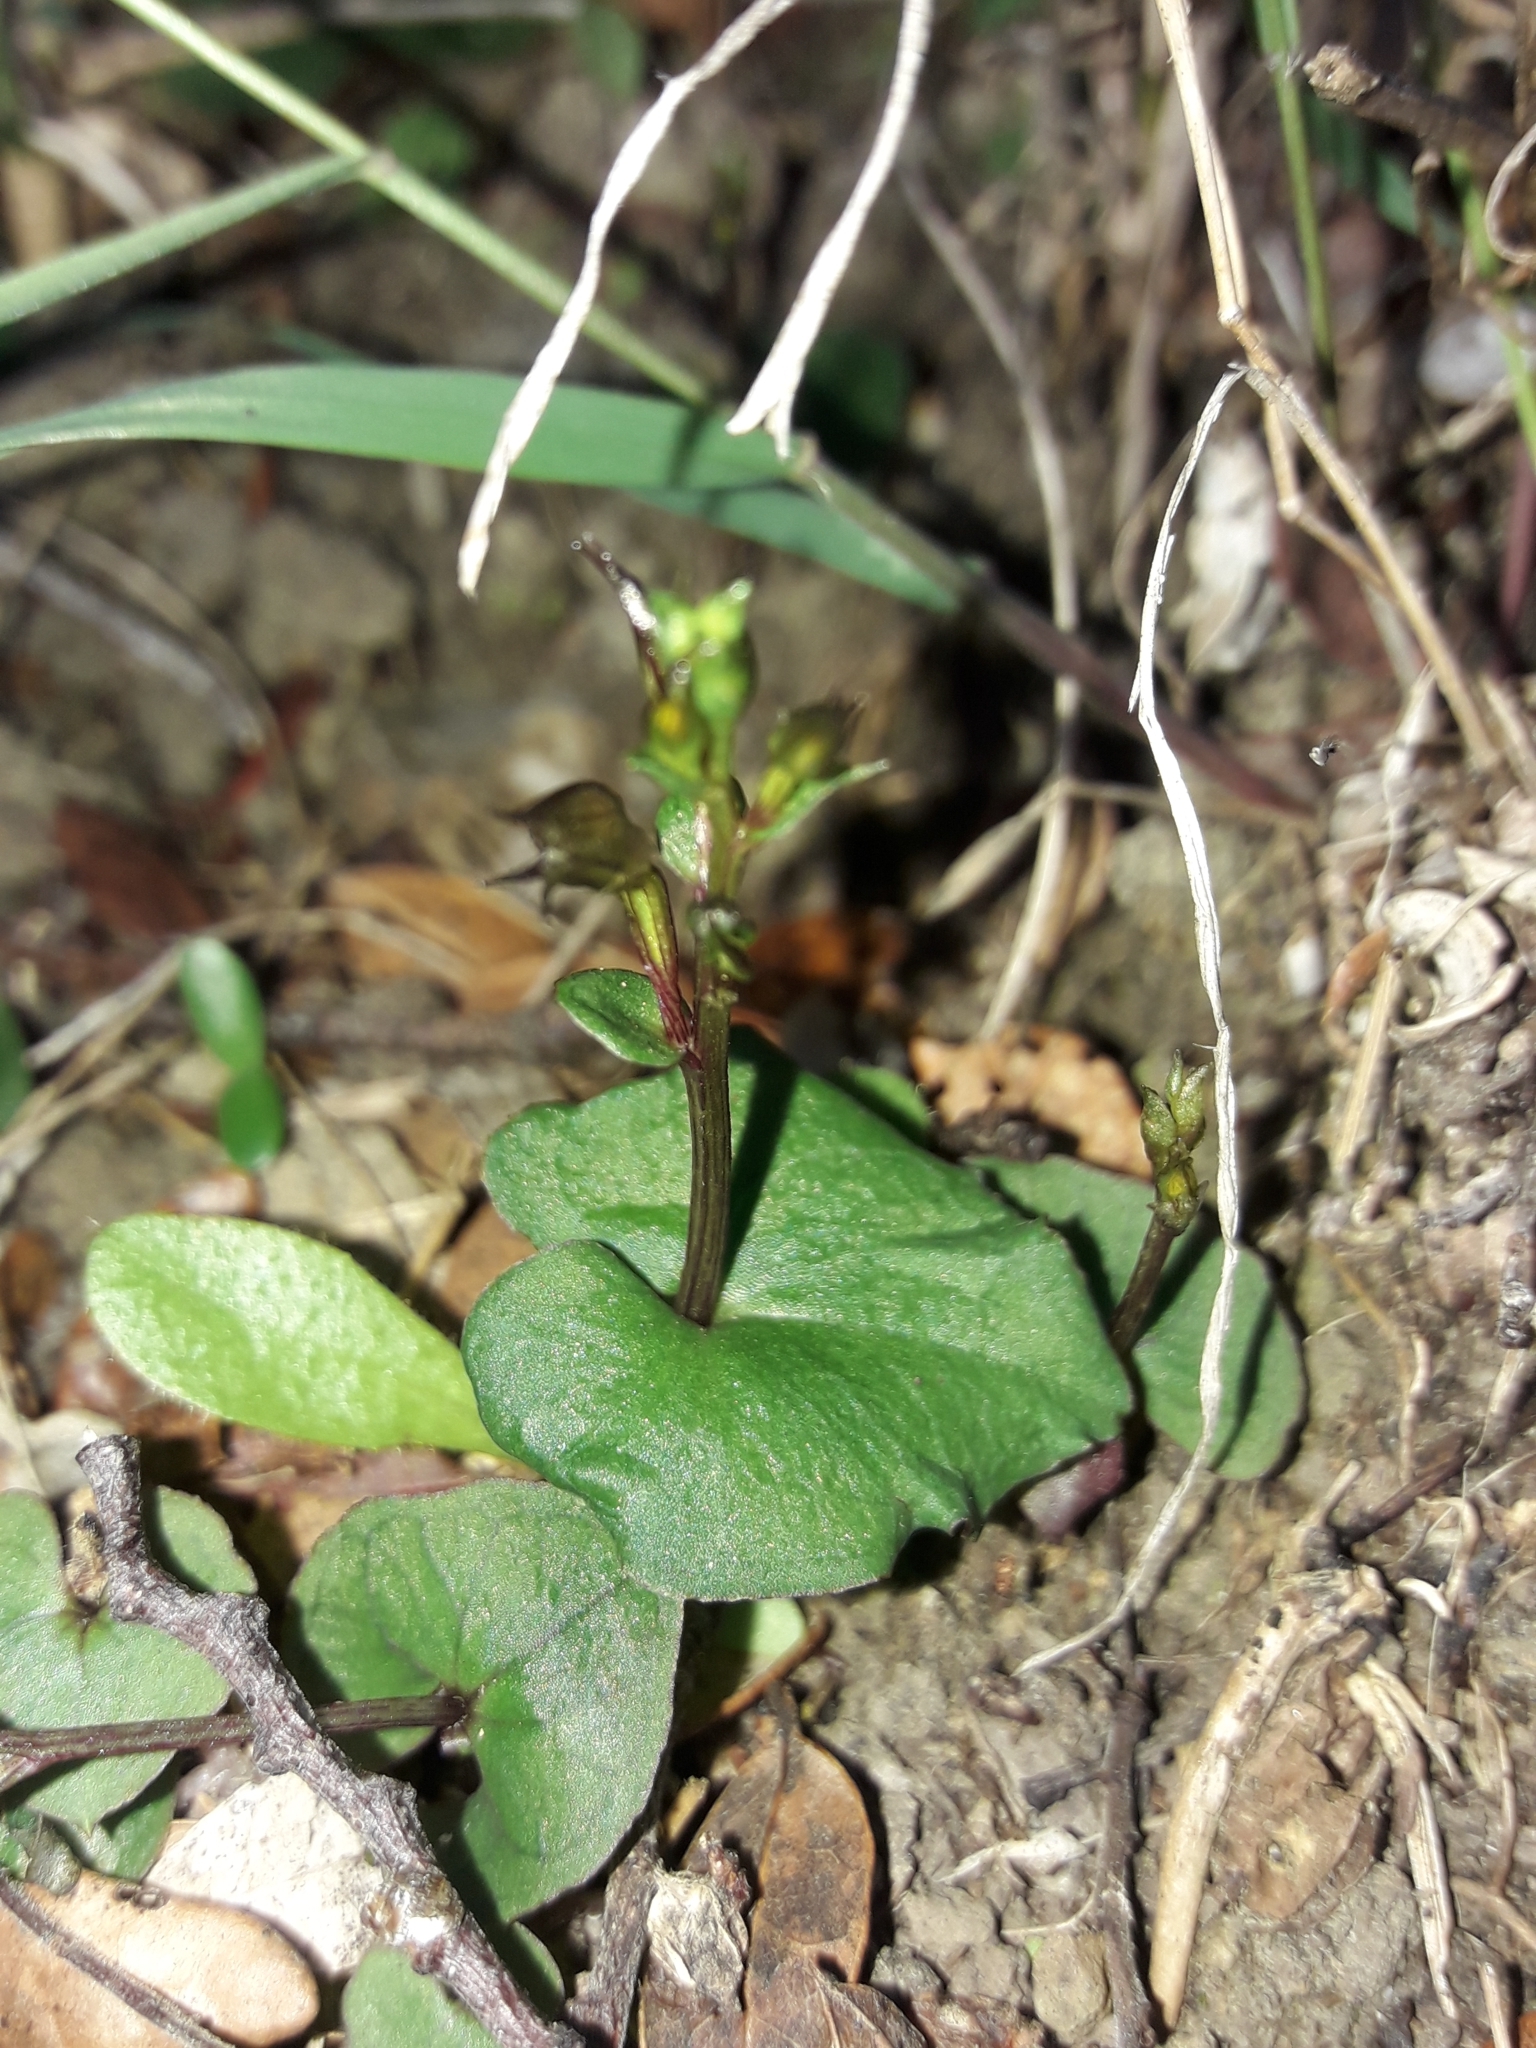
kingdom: Plantae
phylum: Tracheophyta
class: Liliopsida
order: Asparagales
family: Orchidaceae
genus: Acianthus
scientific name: Acianthus sinclairii
